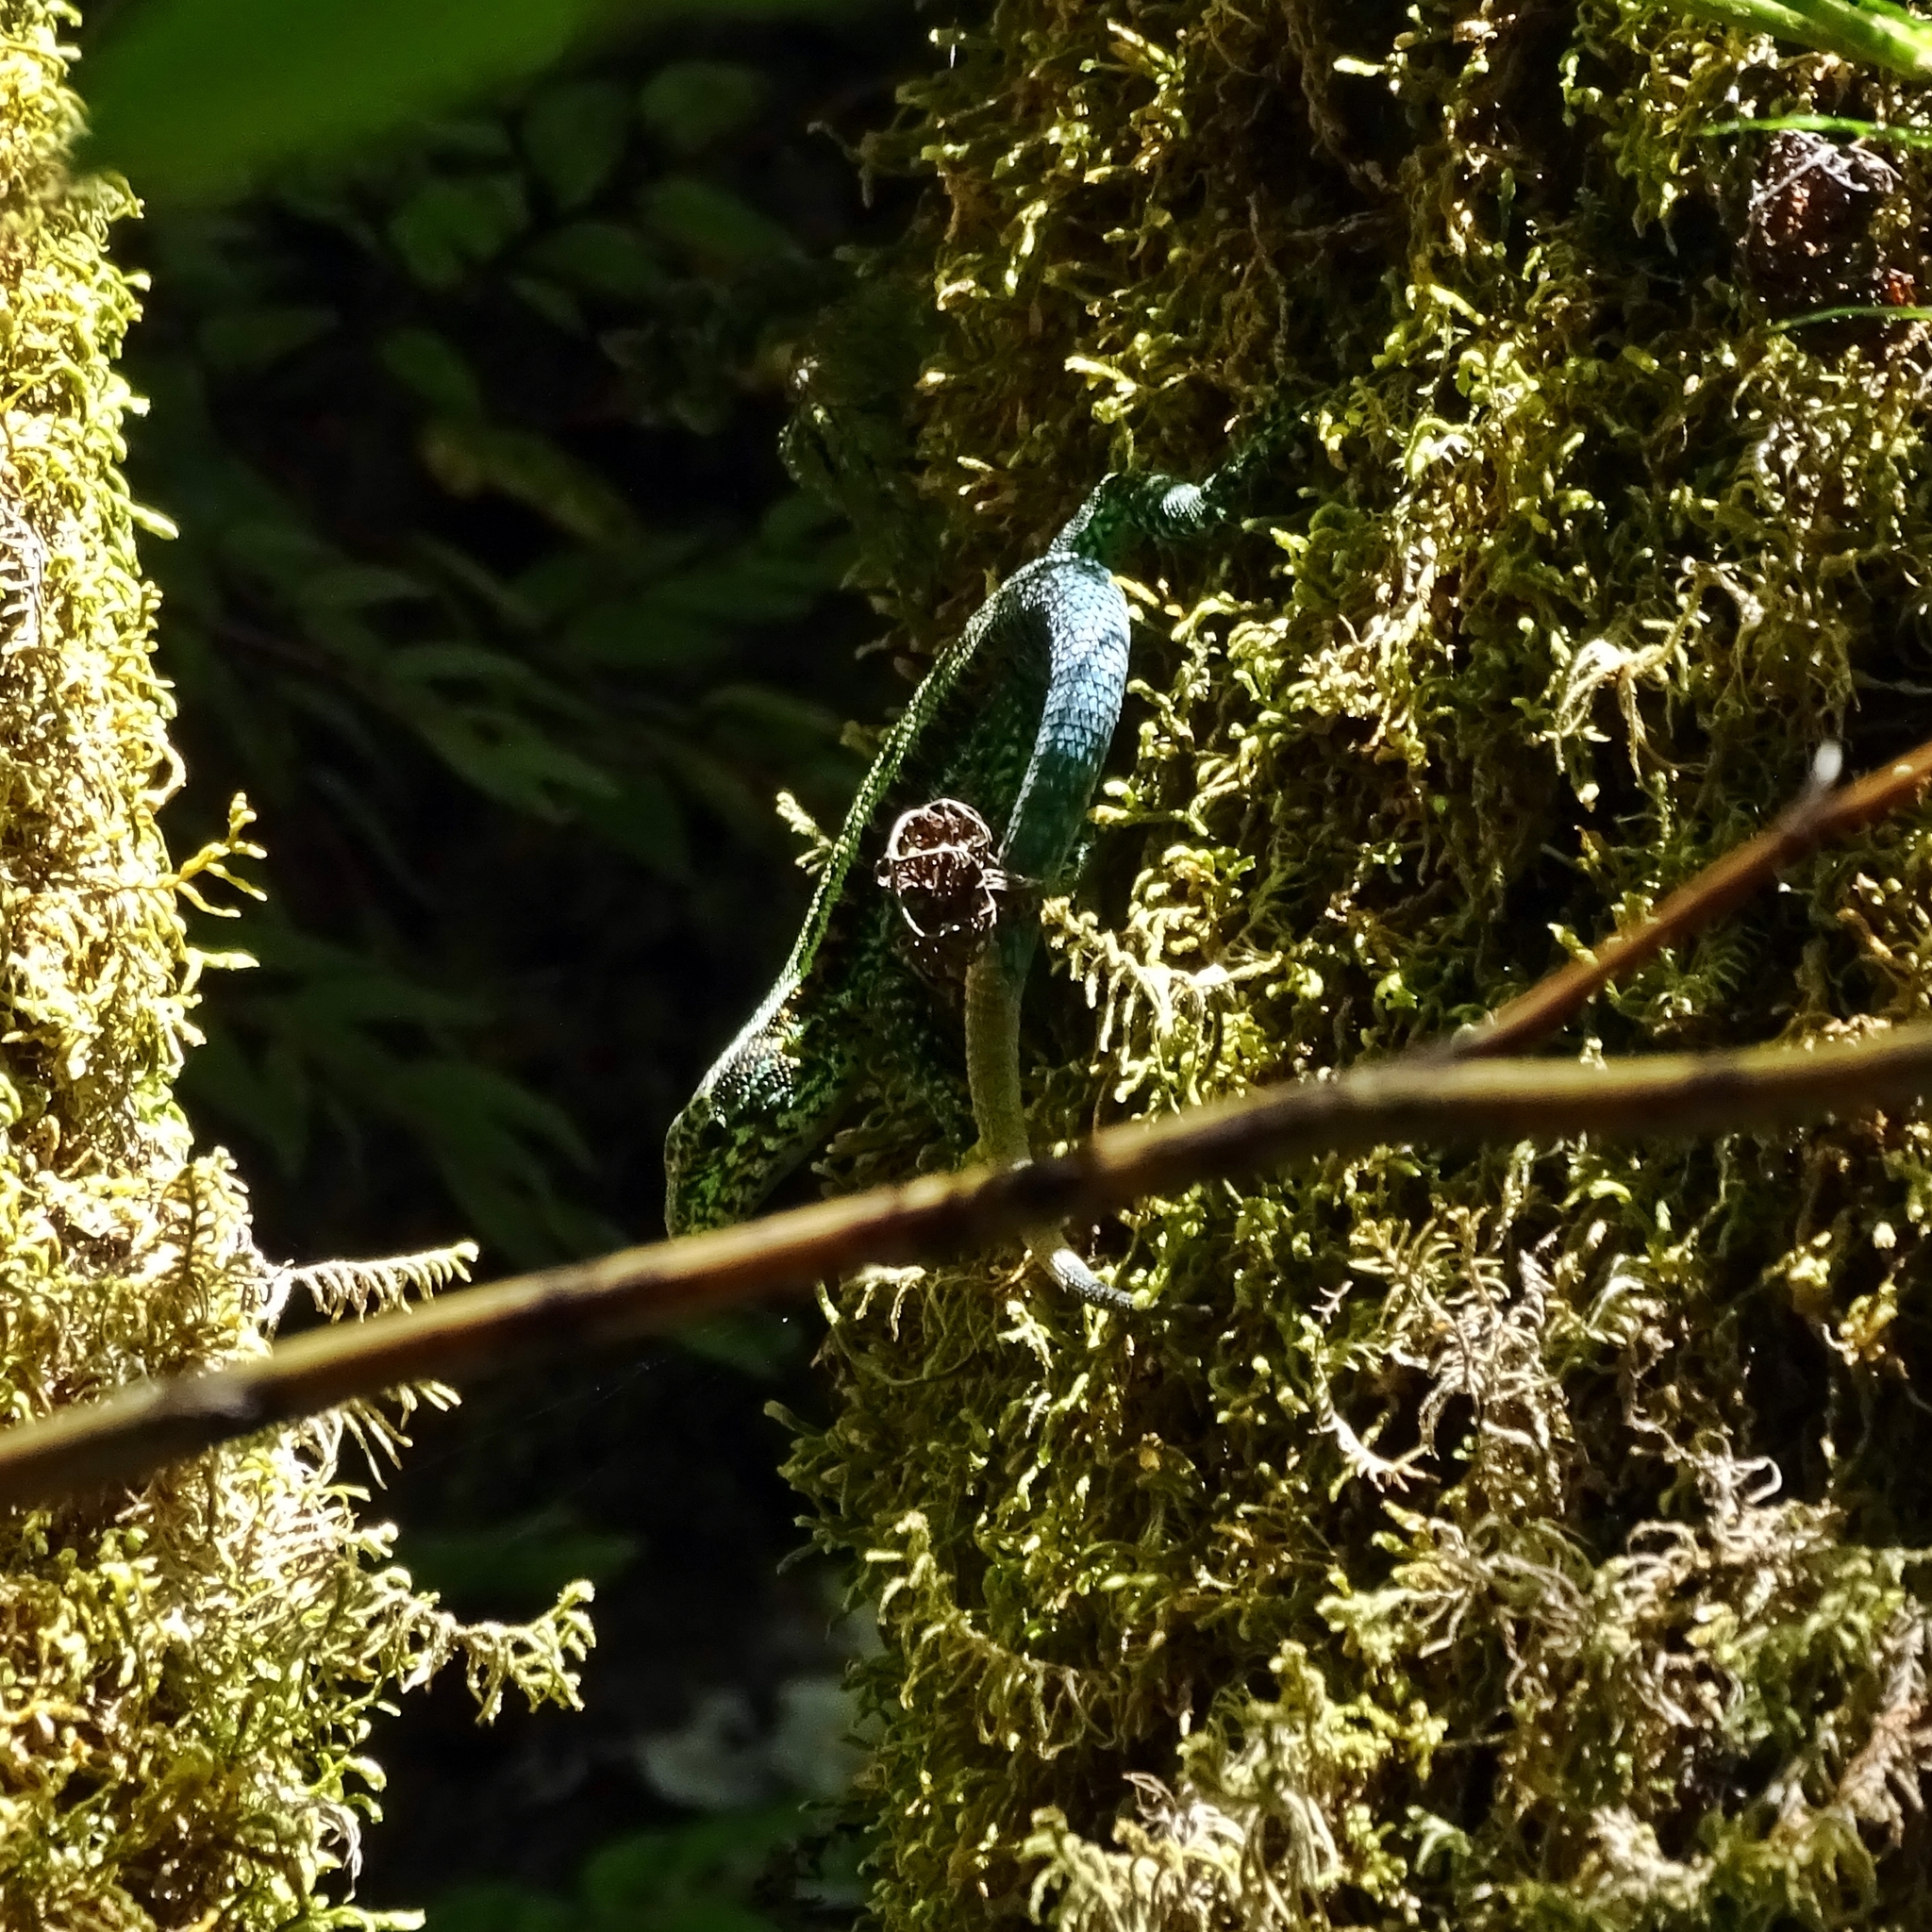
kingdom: Animalia
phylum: Chordata
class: Squamata
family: Liolaemidae
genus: Liolaemus
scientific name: Liolaemus pictus
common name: Painted tree iguana
